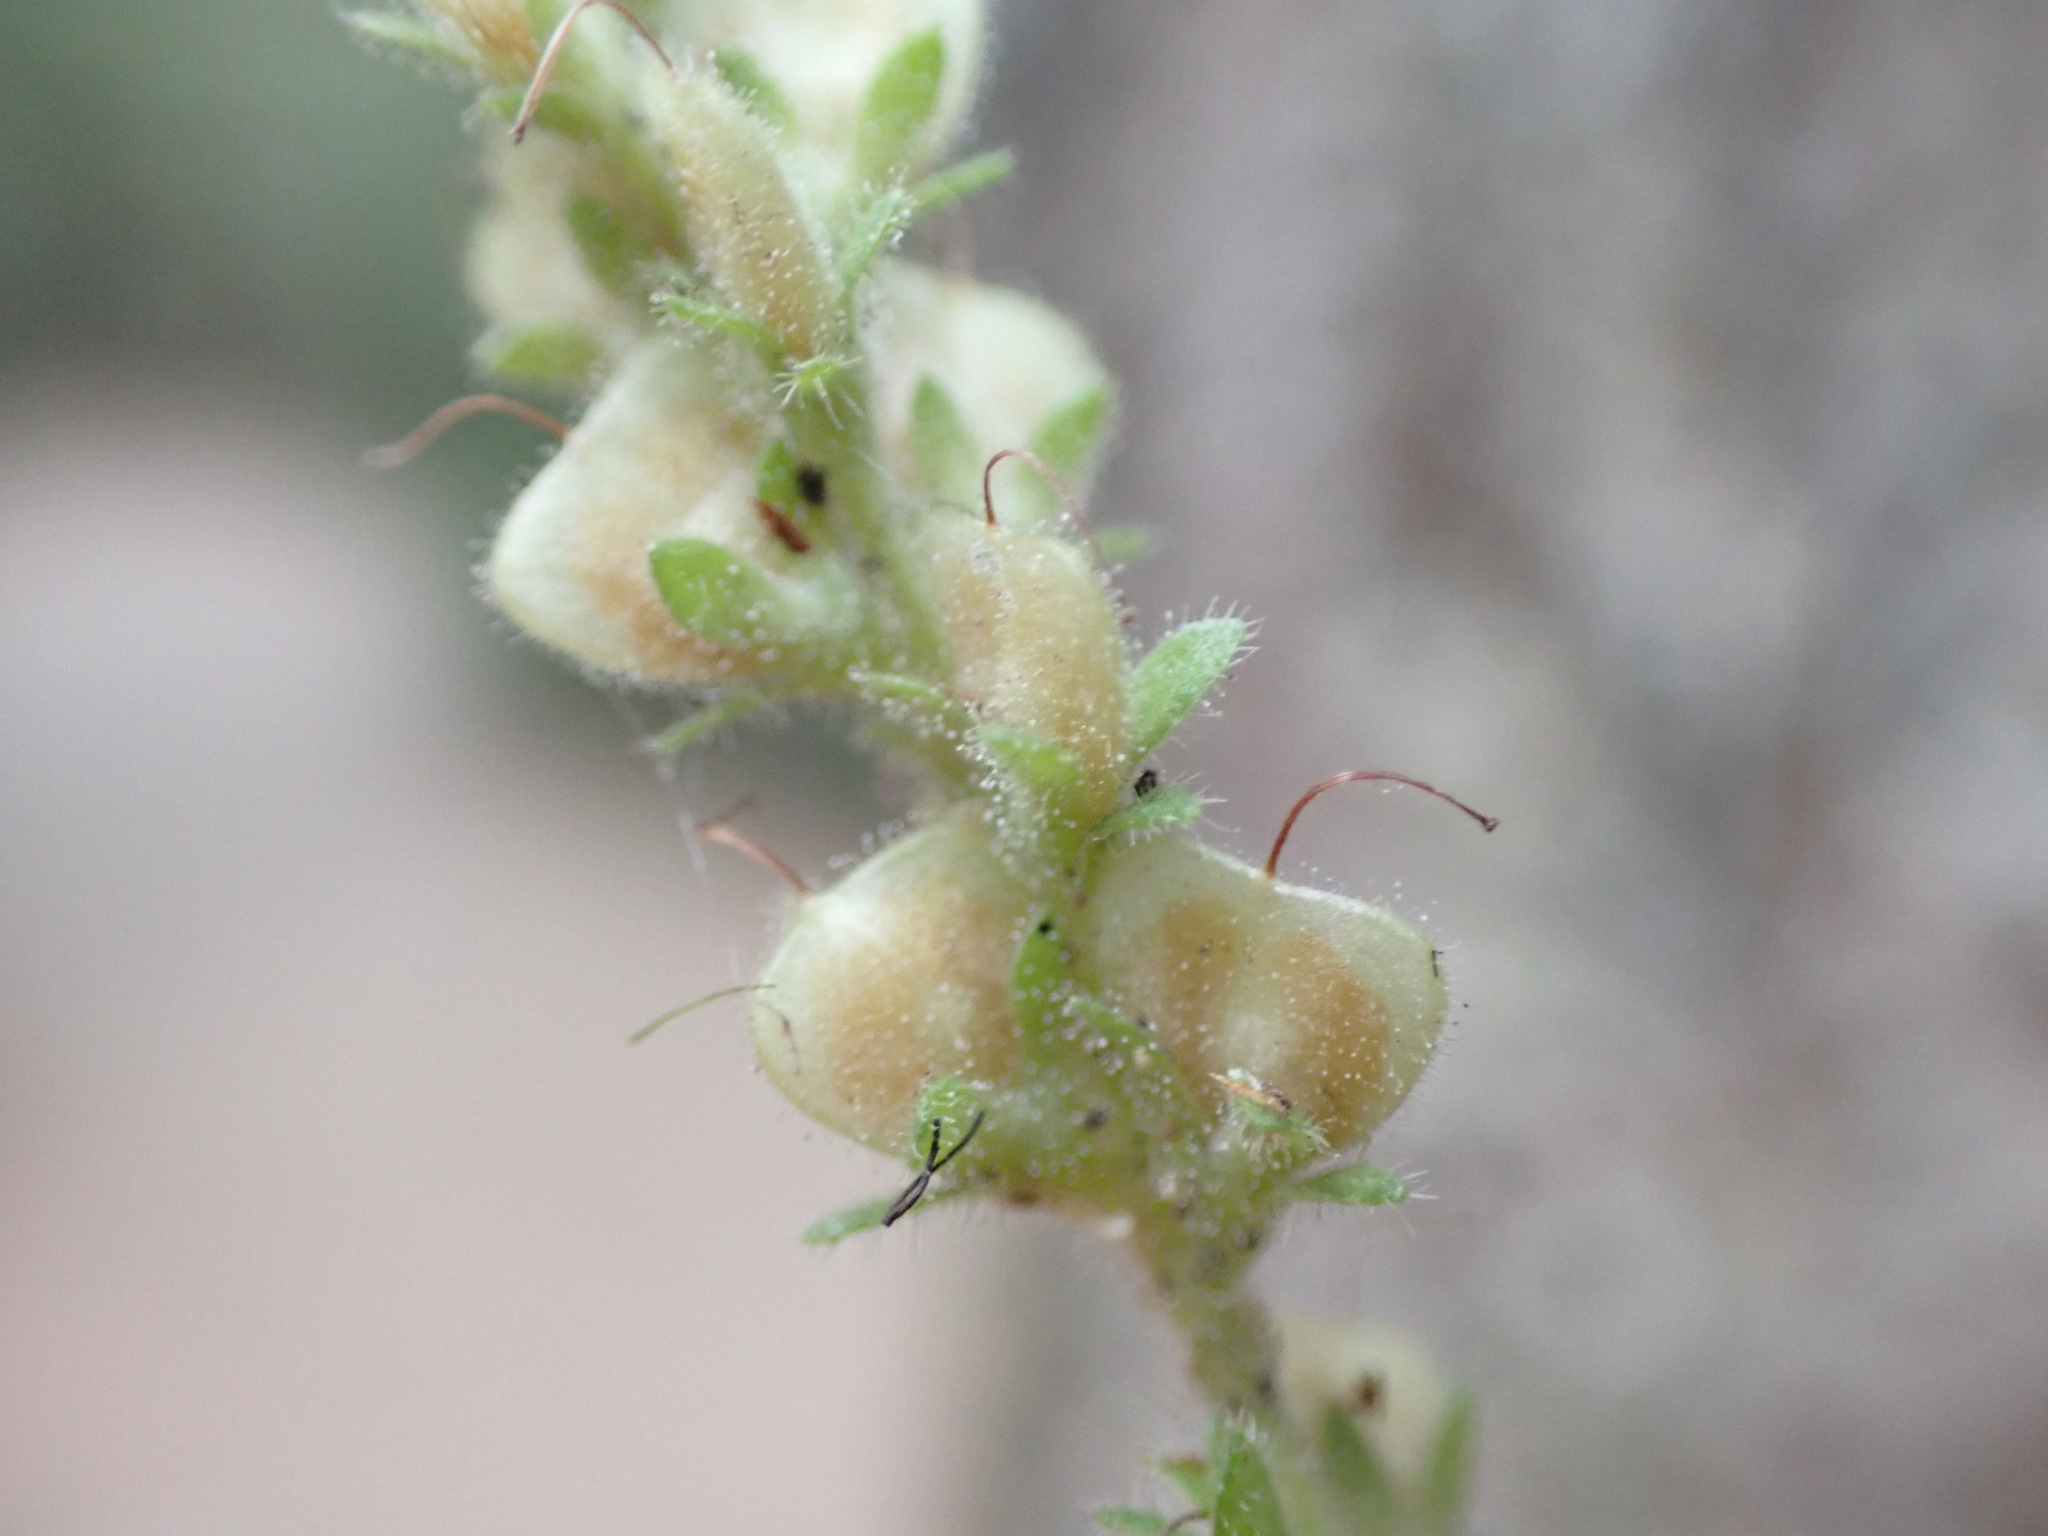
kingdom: Plantae
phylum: Tracheophyta
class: Magnoliopsida
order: Lamiales
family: Plantaginaceae
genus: Veronica
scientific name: Veronica officinalis
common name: Common speedwell
